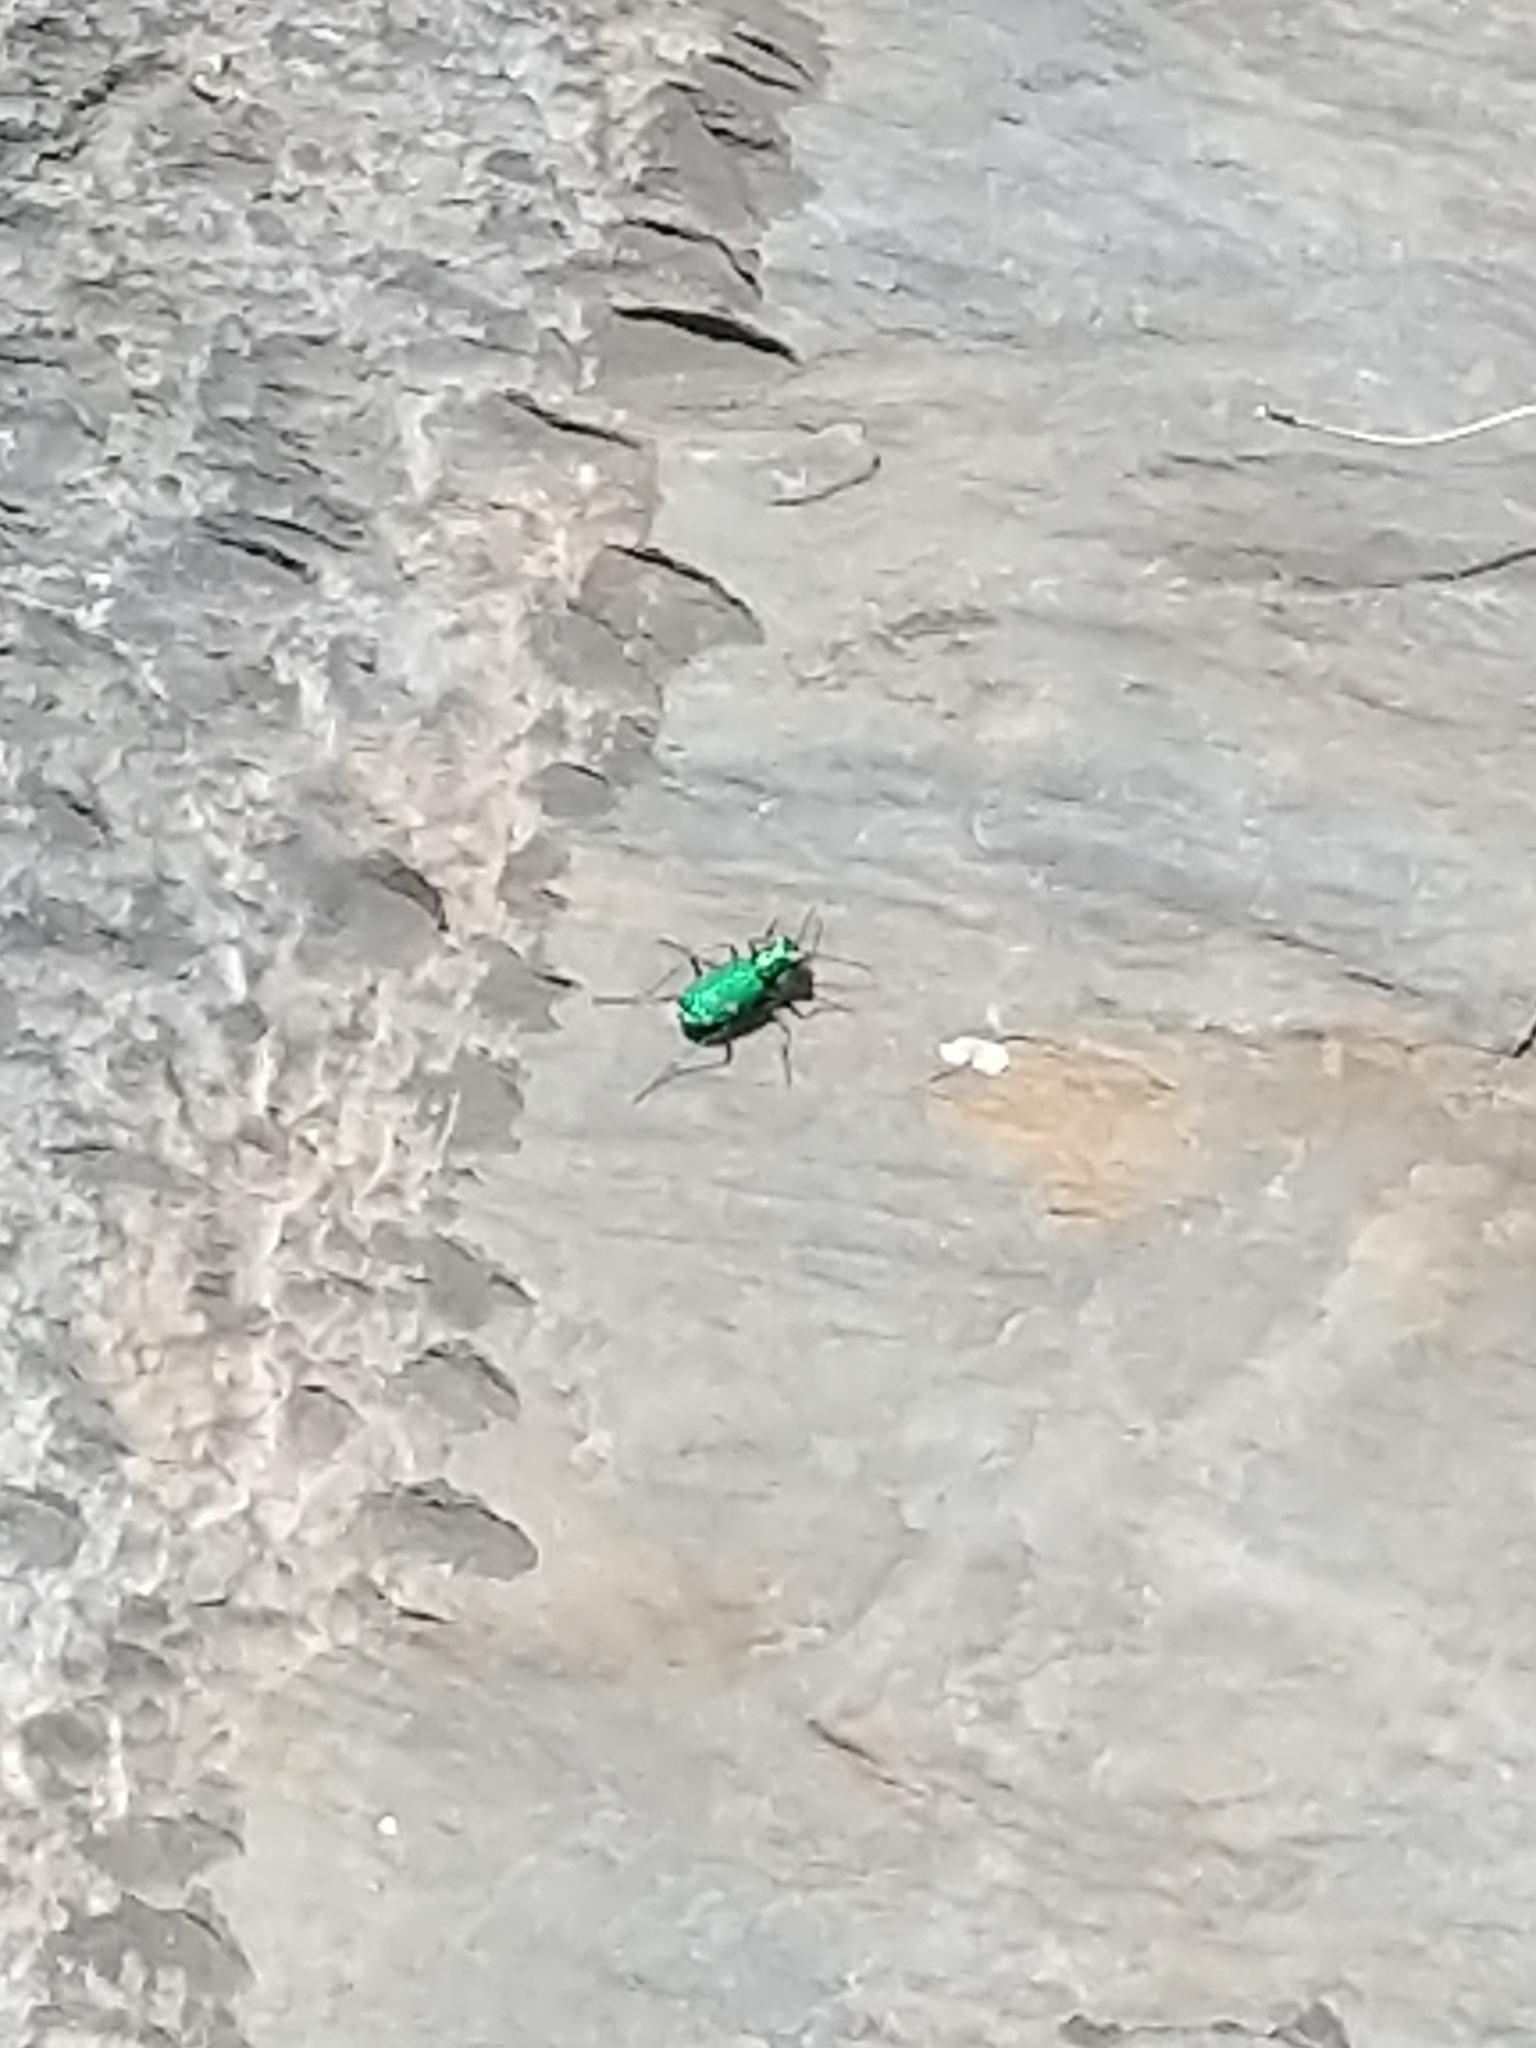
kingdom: Animalia
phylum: Arthropoda
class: Insecta
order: Coleoptera
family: Carabidae
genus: Cicindela
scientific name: Cicindela sexguttata
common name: Six-spotted tiger beetle
